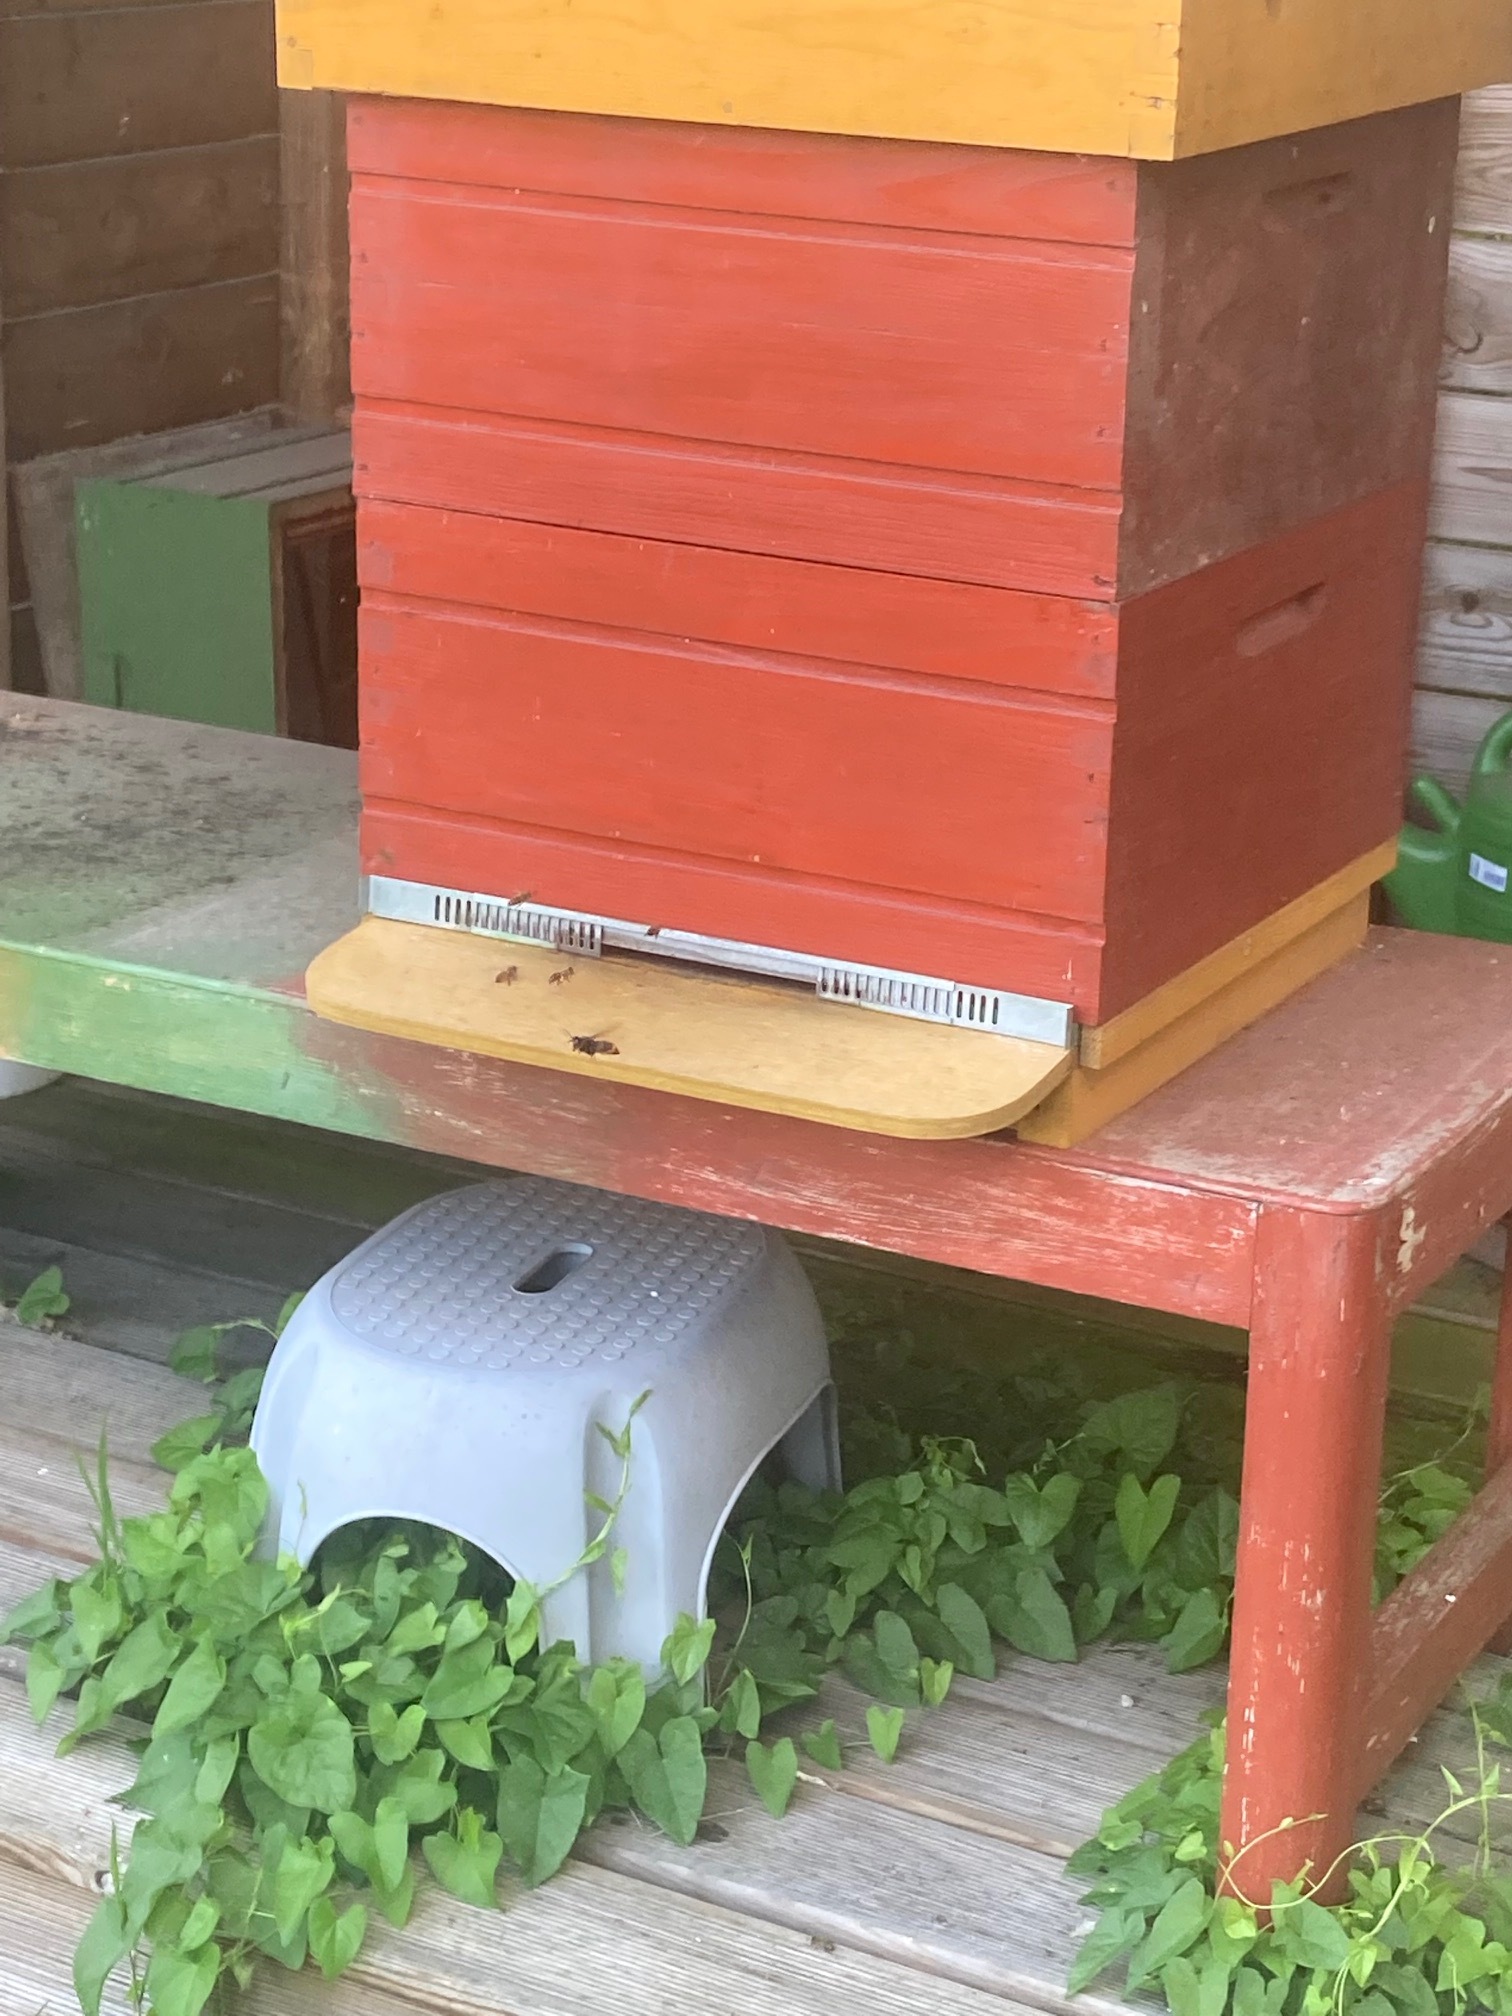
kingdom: Animalia
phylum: Arthropoda
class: Insecta
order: Hymenoptera
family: Vespidae
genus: Vespa
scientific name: Vespa velutina
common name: Asian hornet
